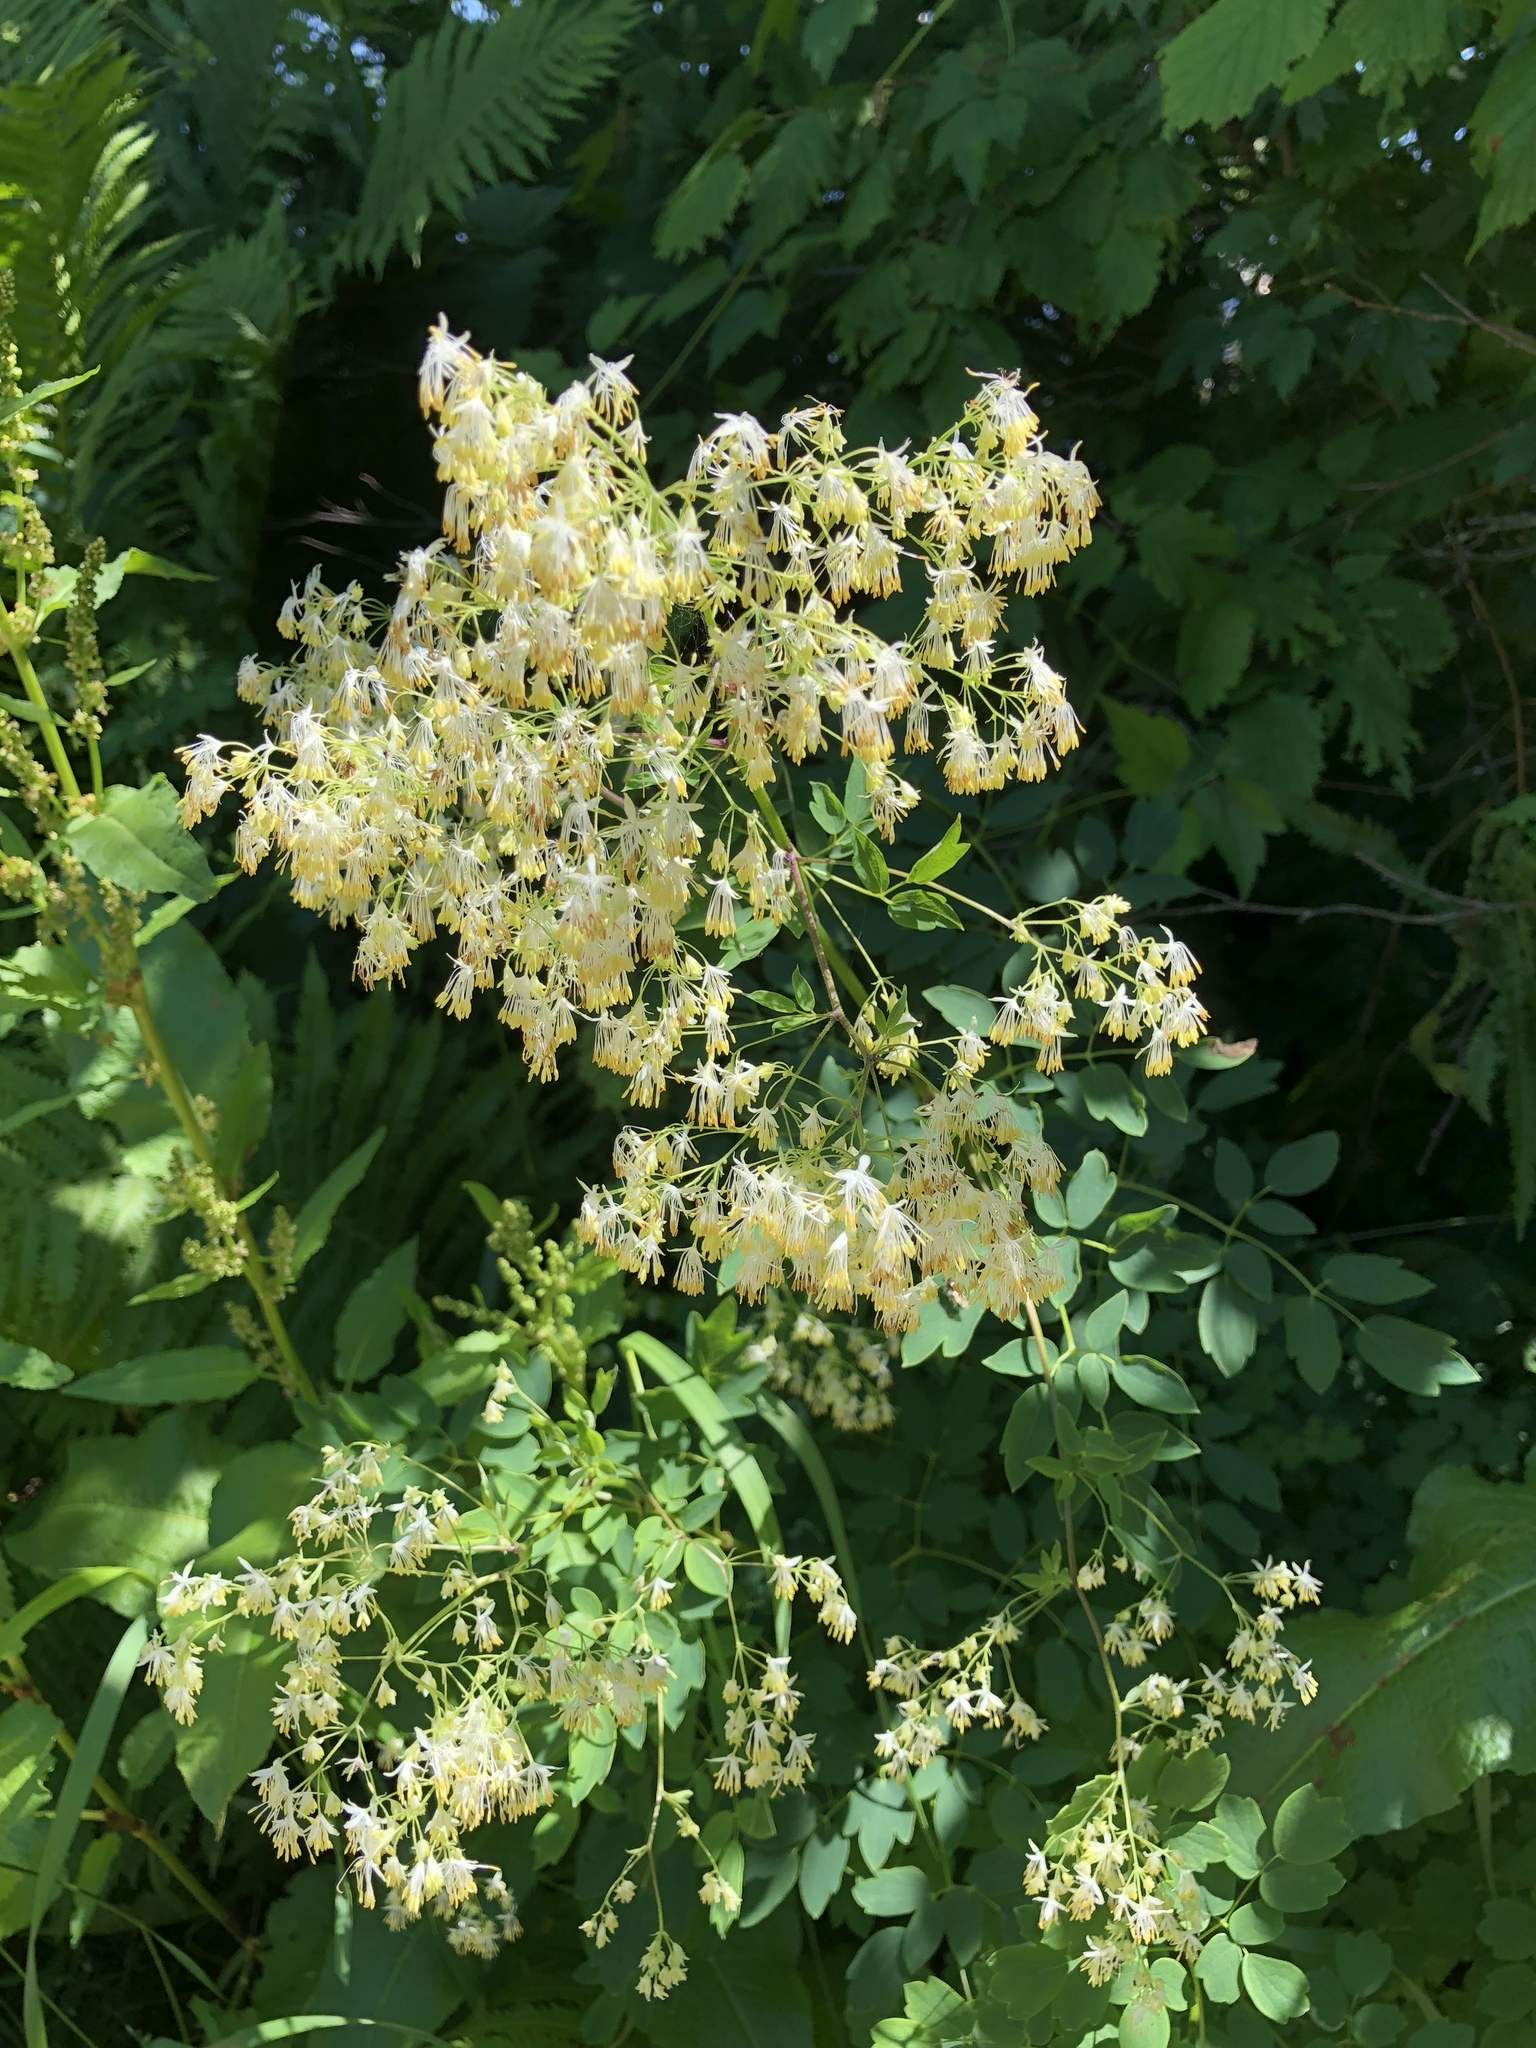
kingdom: Plantae
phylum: Tracheophyta
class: Magnoliopsida
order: Ranunculales
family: Ranunculaceae
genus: Thalictrum
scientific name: Thalictrum dasycarpum
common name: Purple meadow-rue
